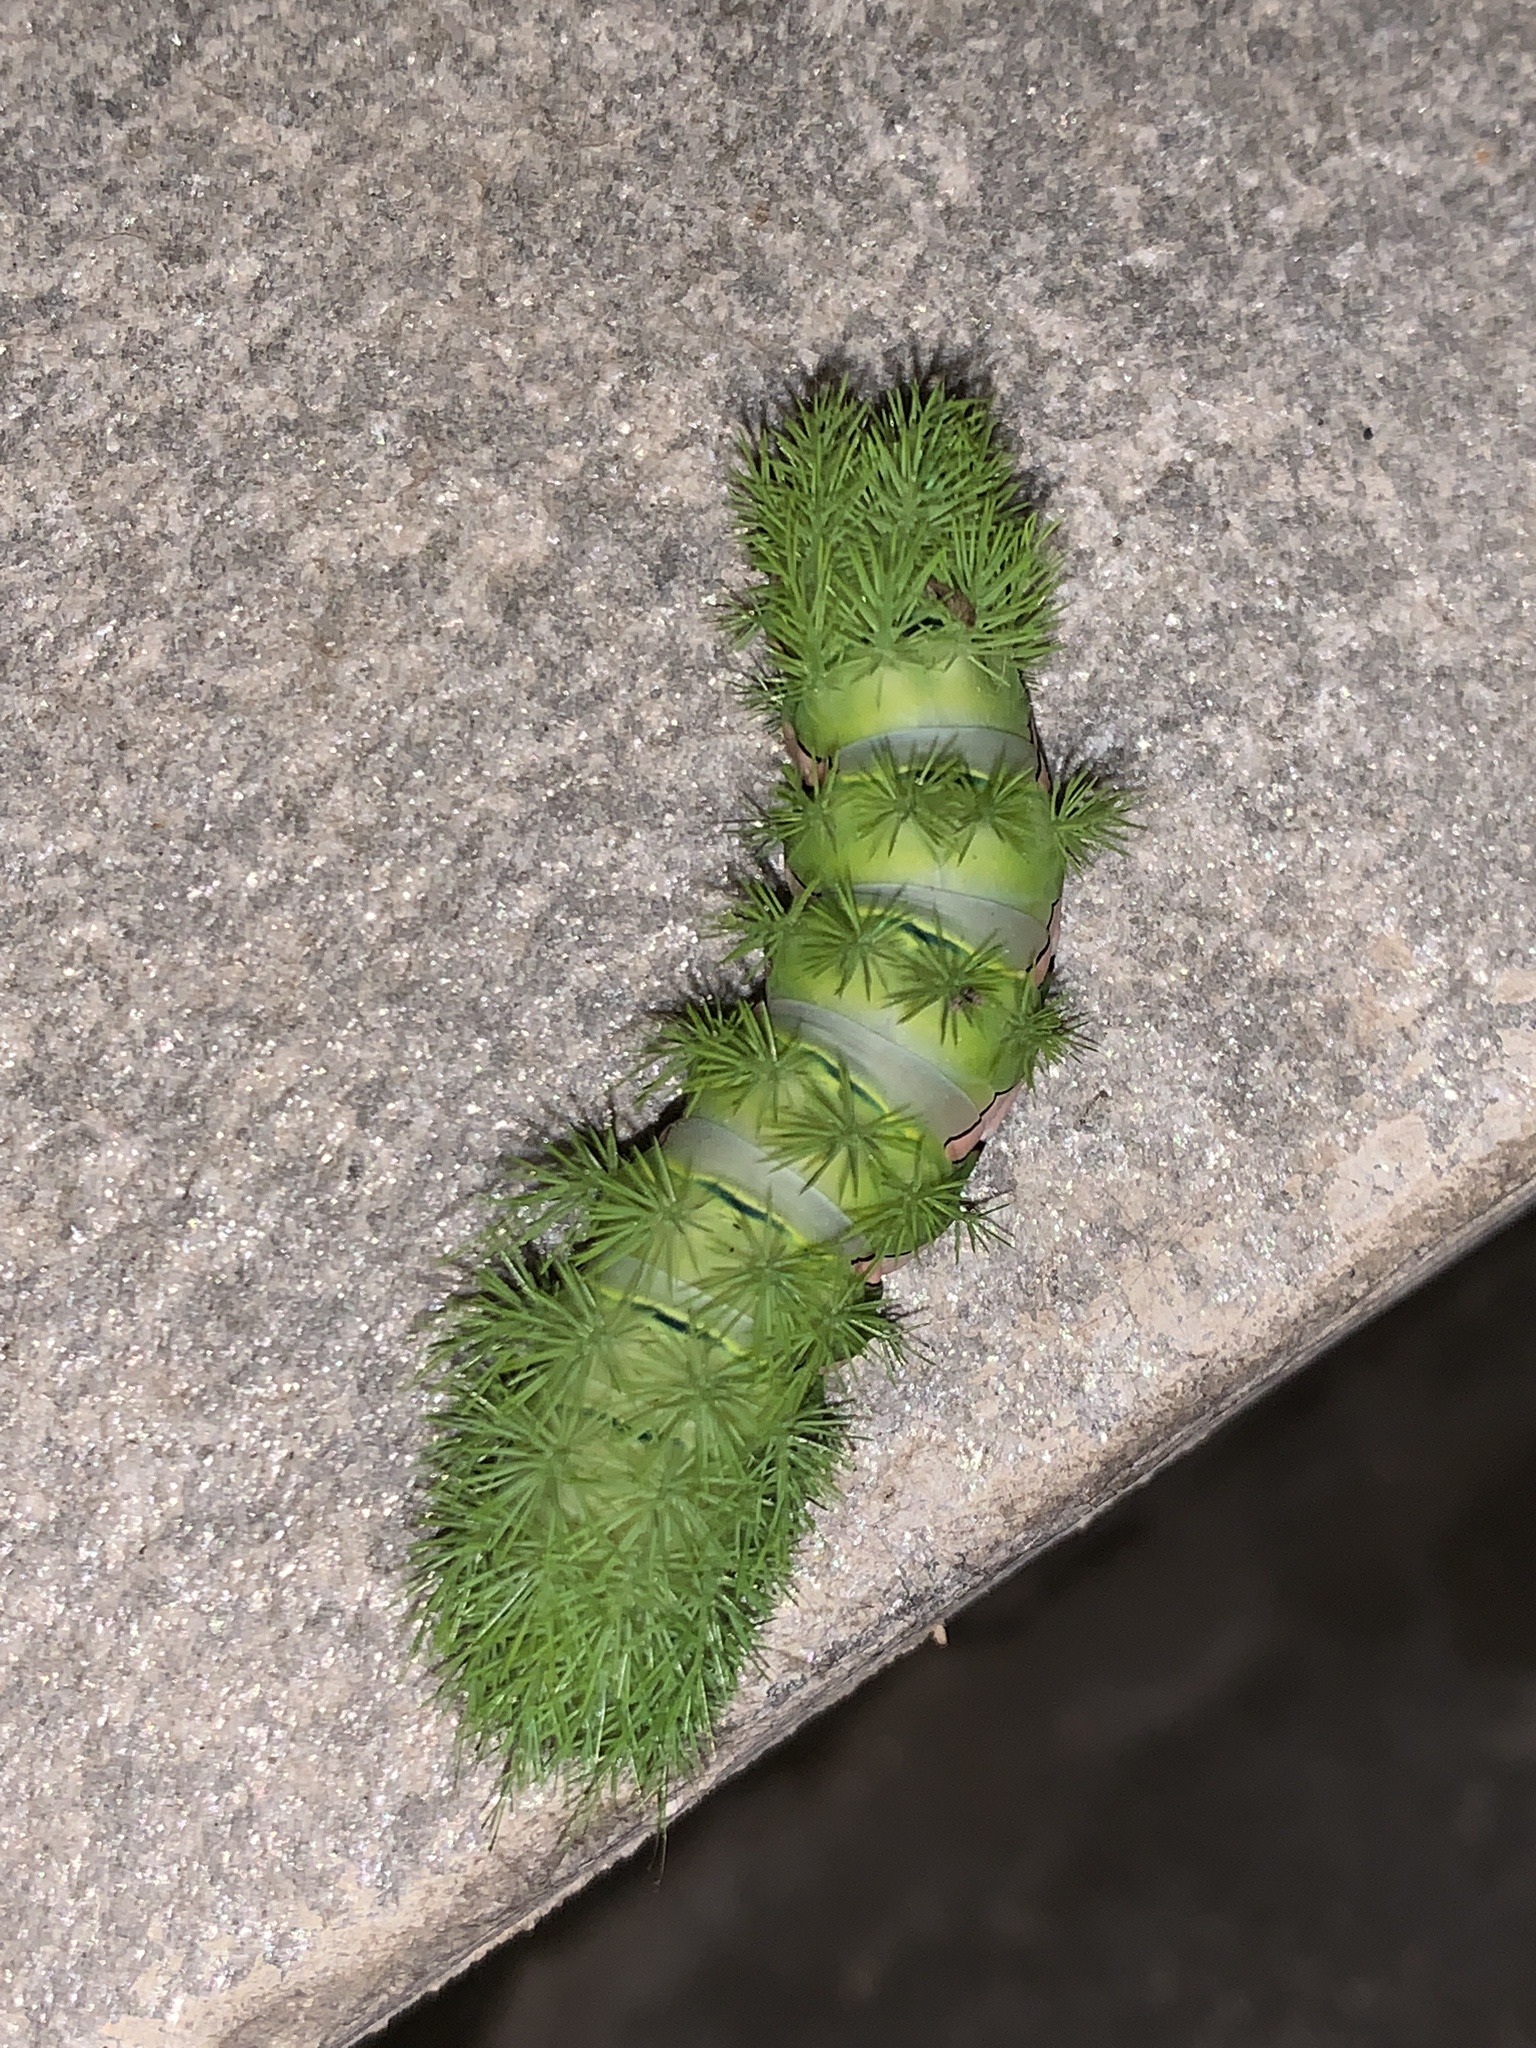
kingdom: Animalia
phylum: Arthropoda
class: Insecta
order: Lepidoptera
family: Saturniidae
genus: Automeris
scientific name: Automeris naranja
